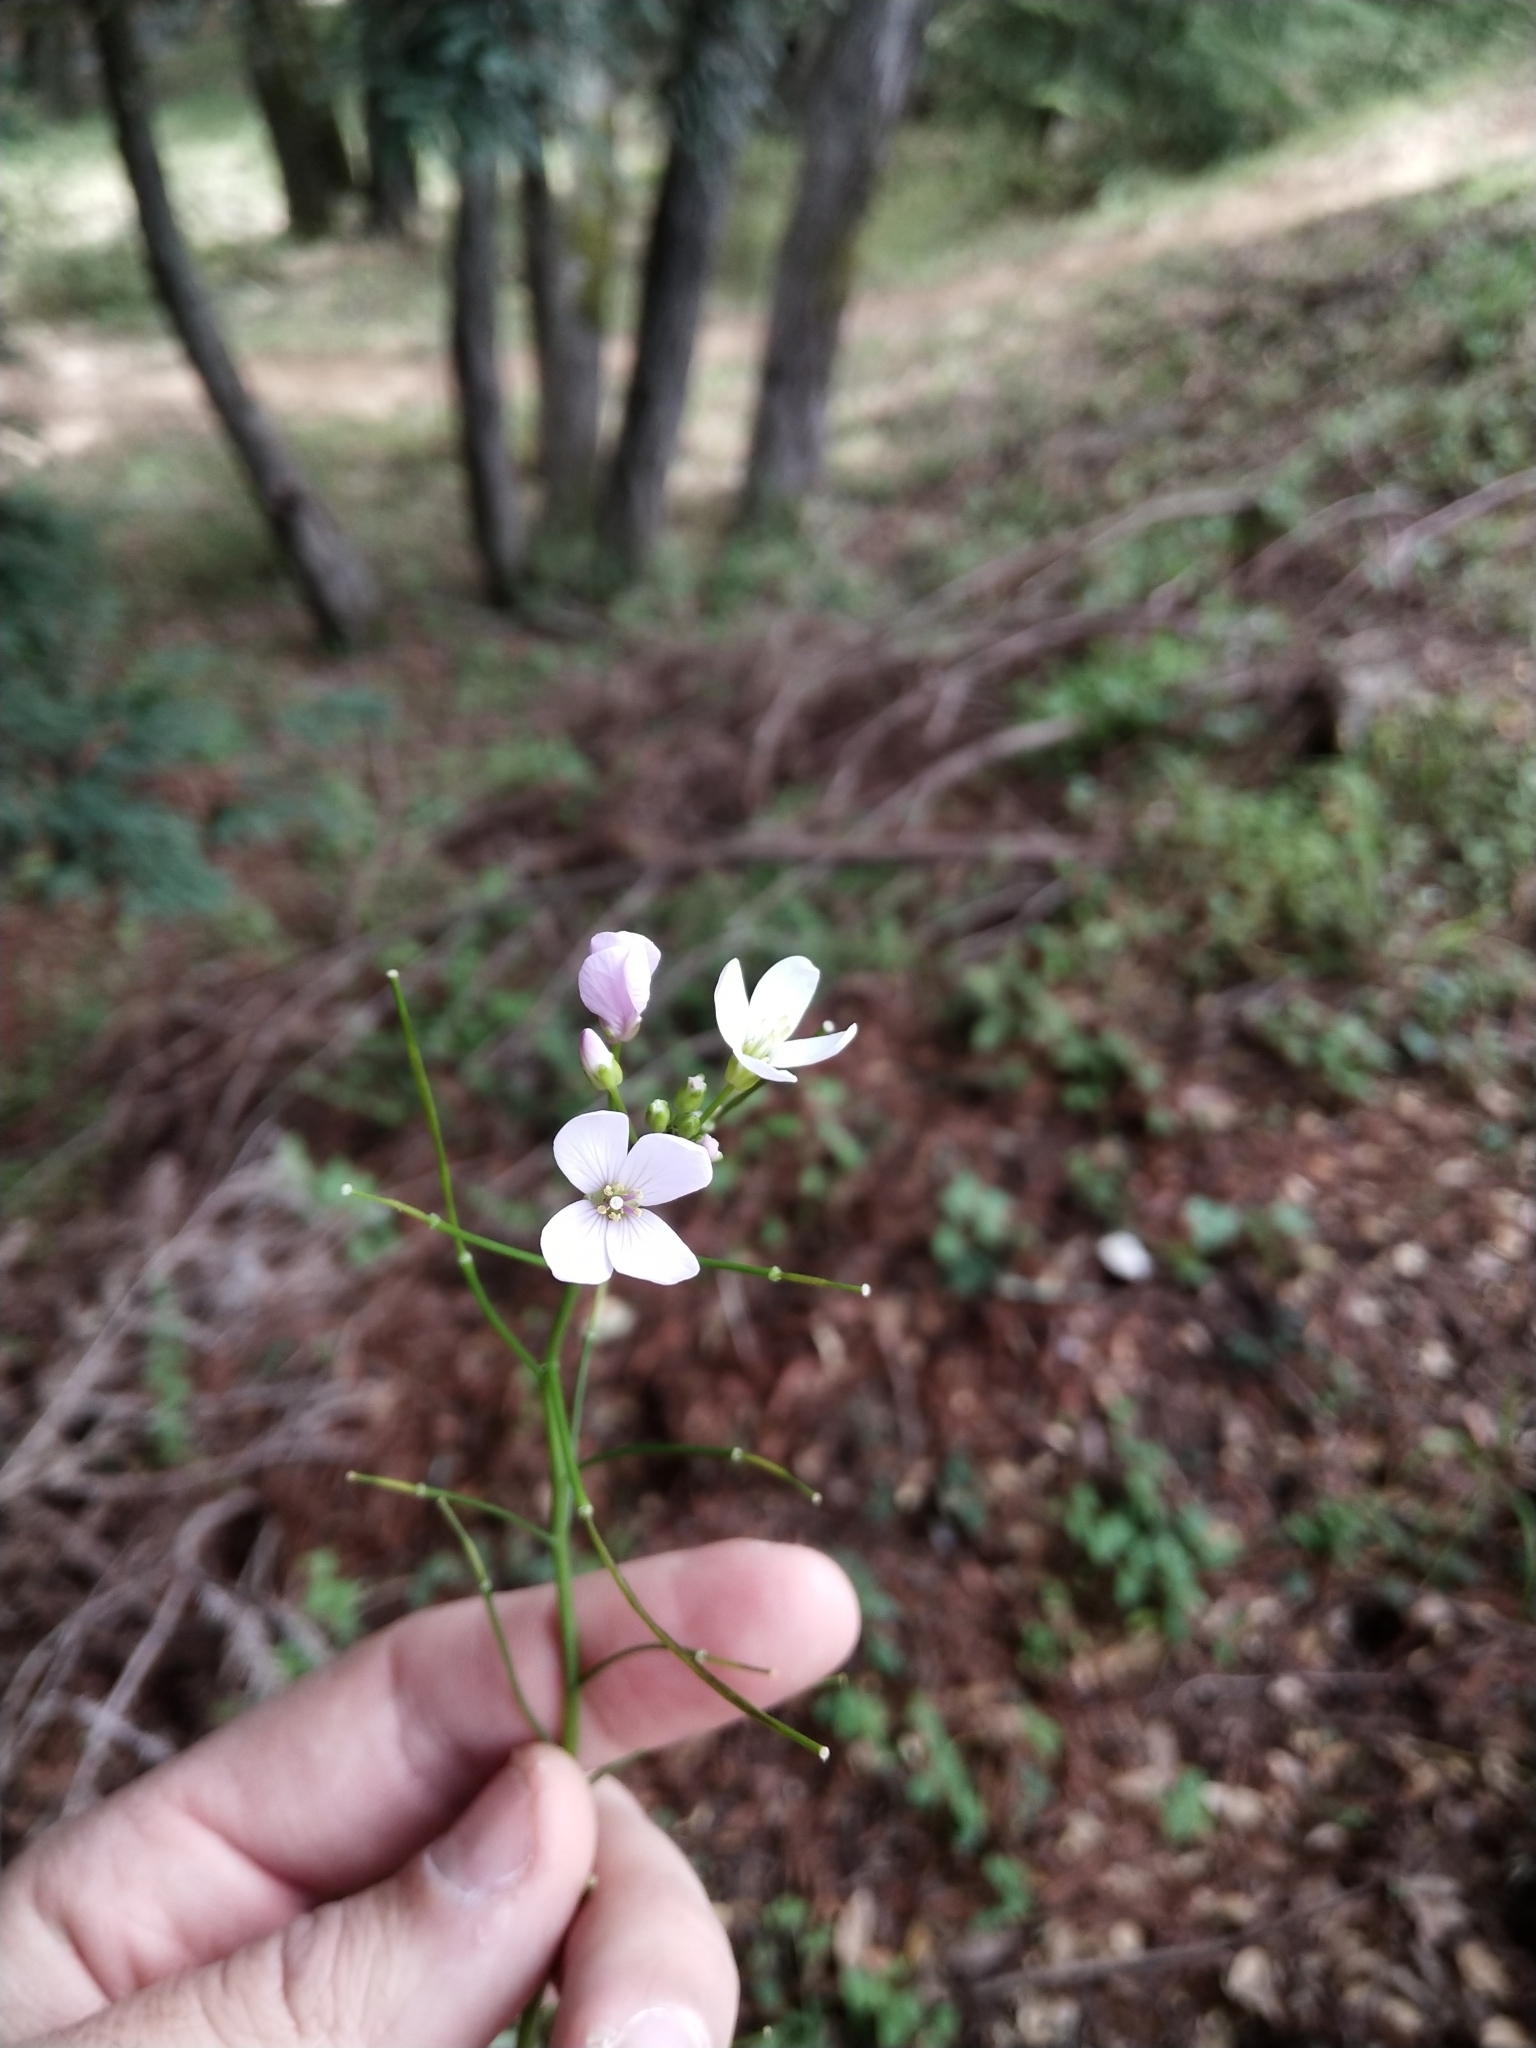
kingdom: Plantae
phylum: Tracheophyta
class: Magnoliopsida
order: Brassicales
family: Brassicaceae
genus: Cardamine
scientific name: Cardamine californica
